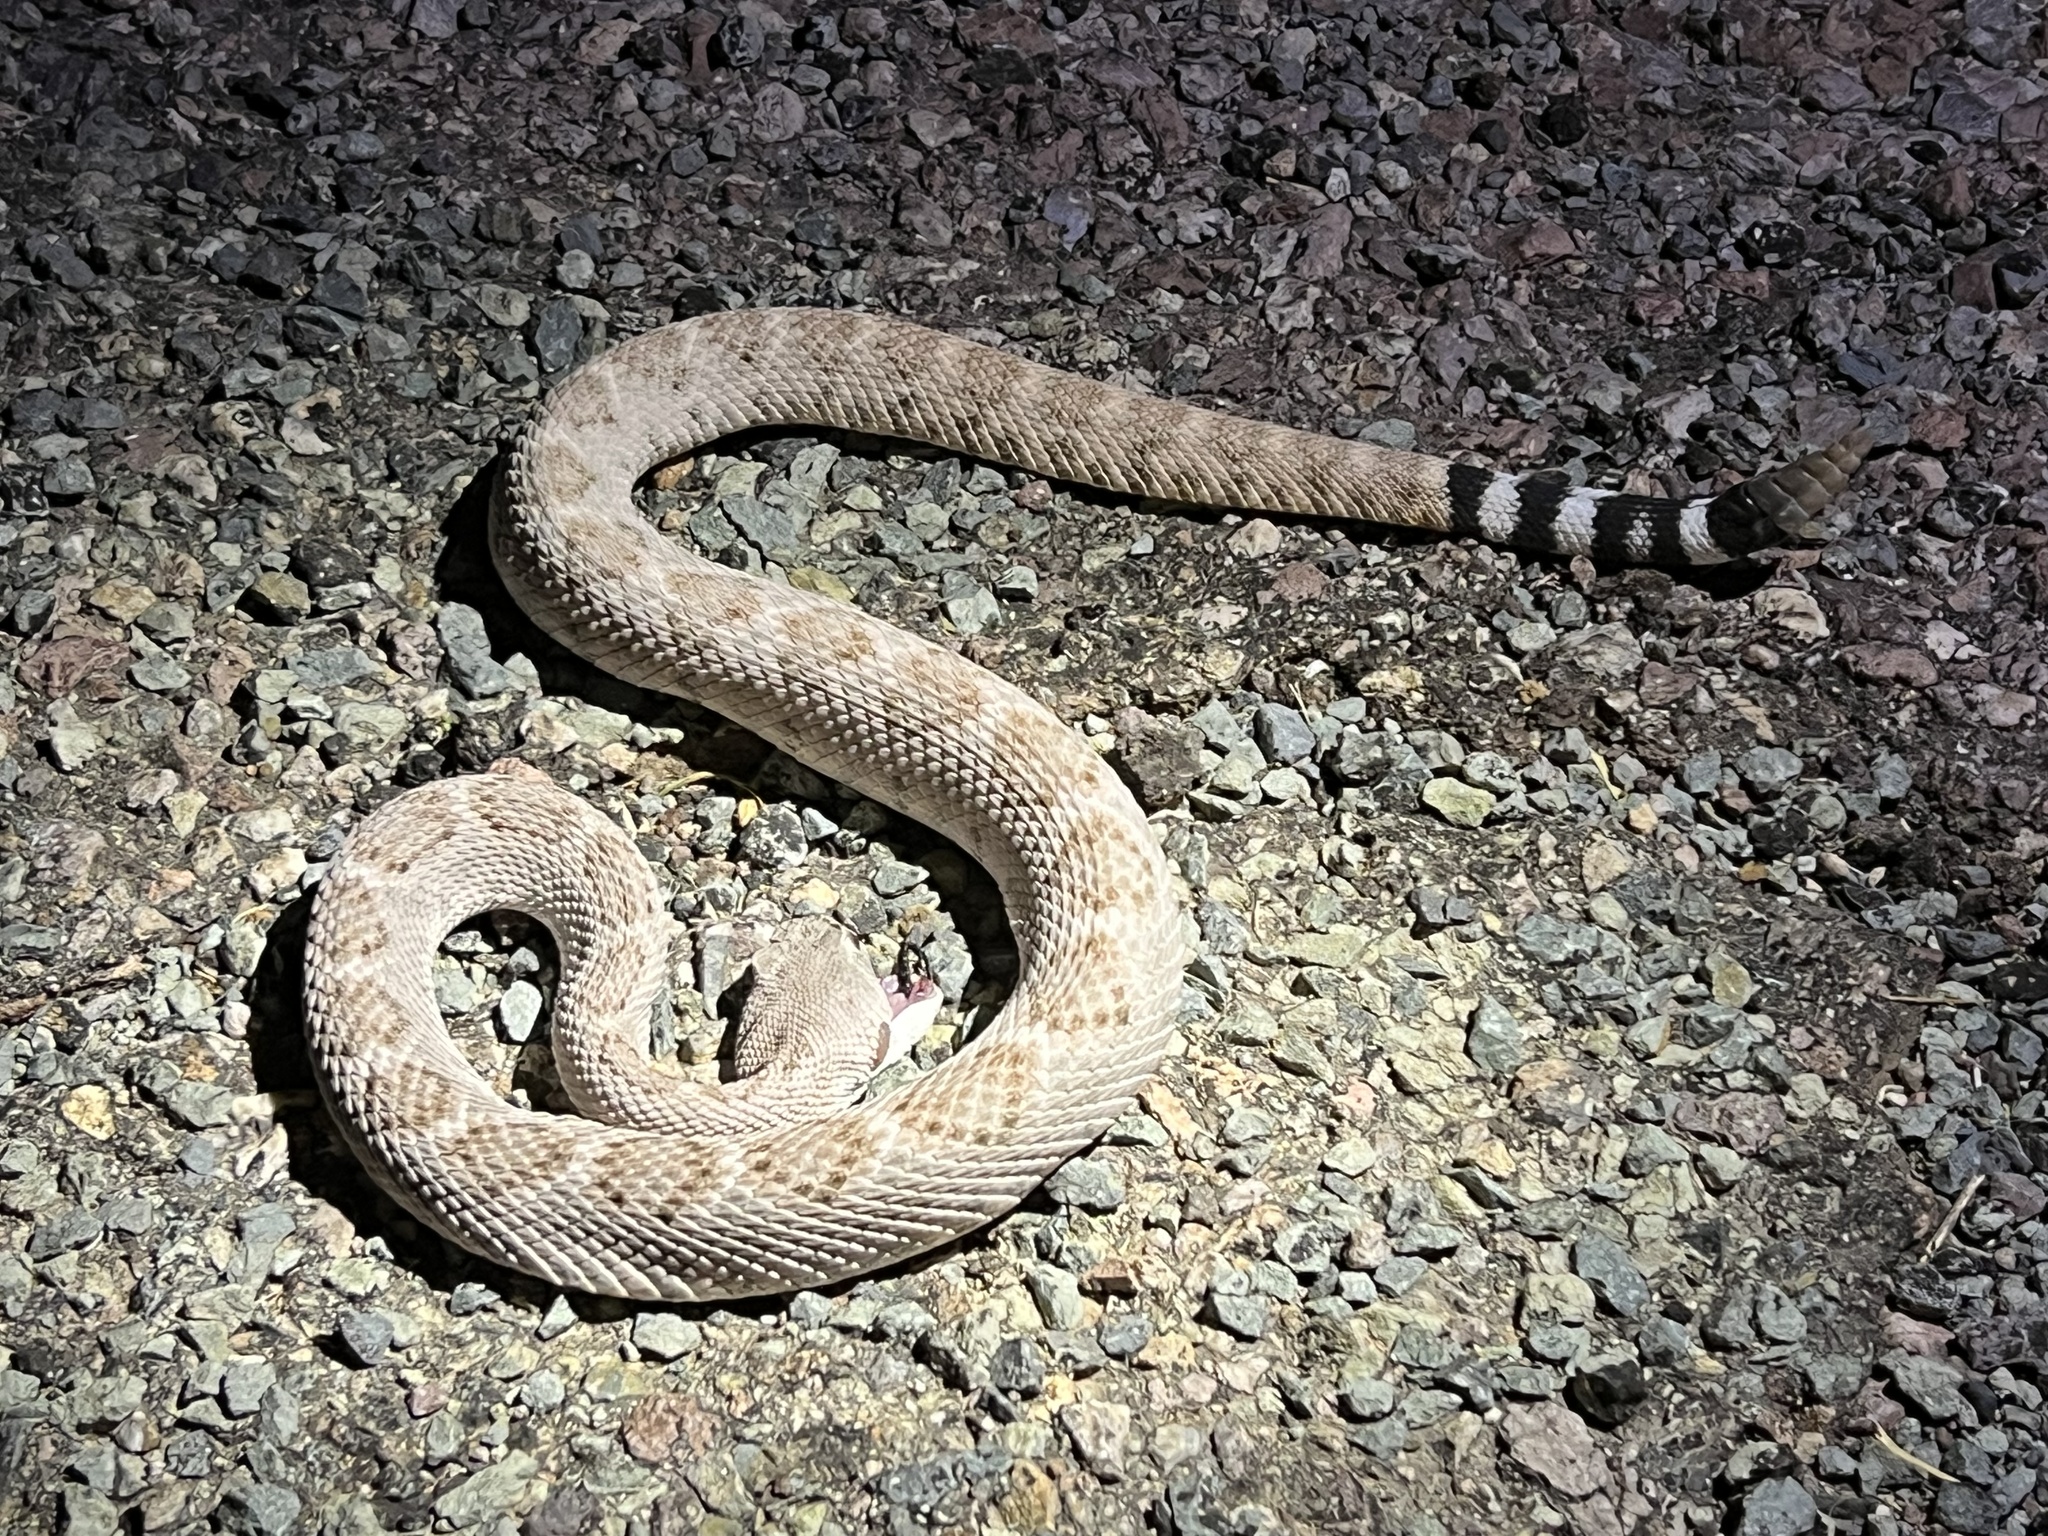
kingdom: Animalia
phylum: Chordata
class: Squamata
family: Viperidae
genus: Crotalus
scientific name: Crotalus atrox
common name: Western diamond-backed rattlesnake
